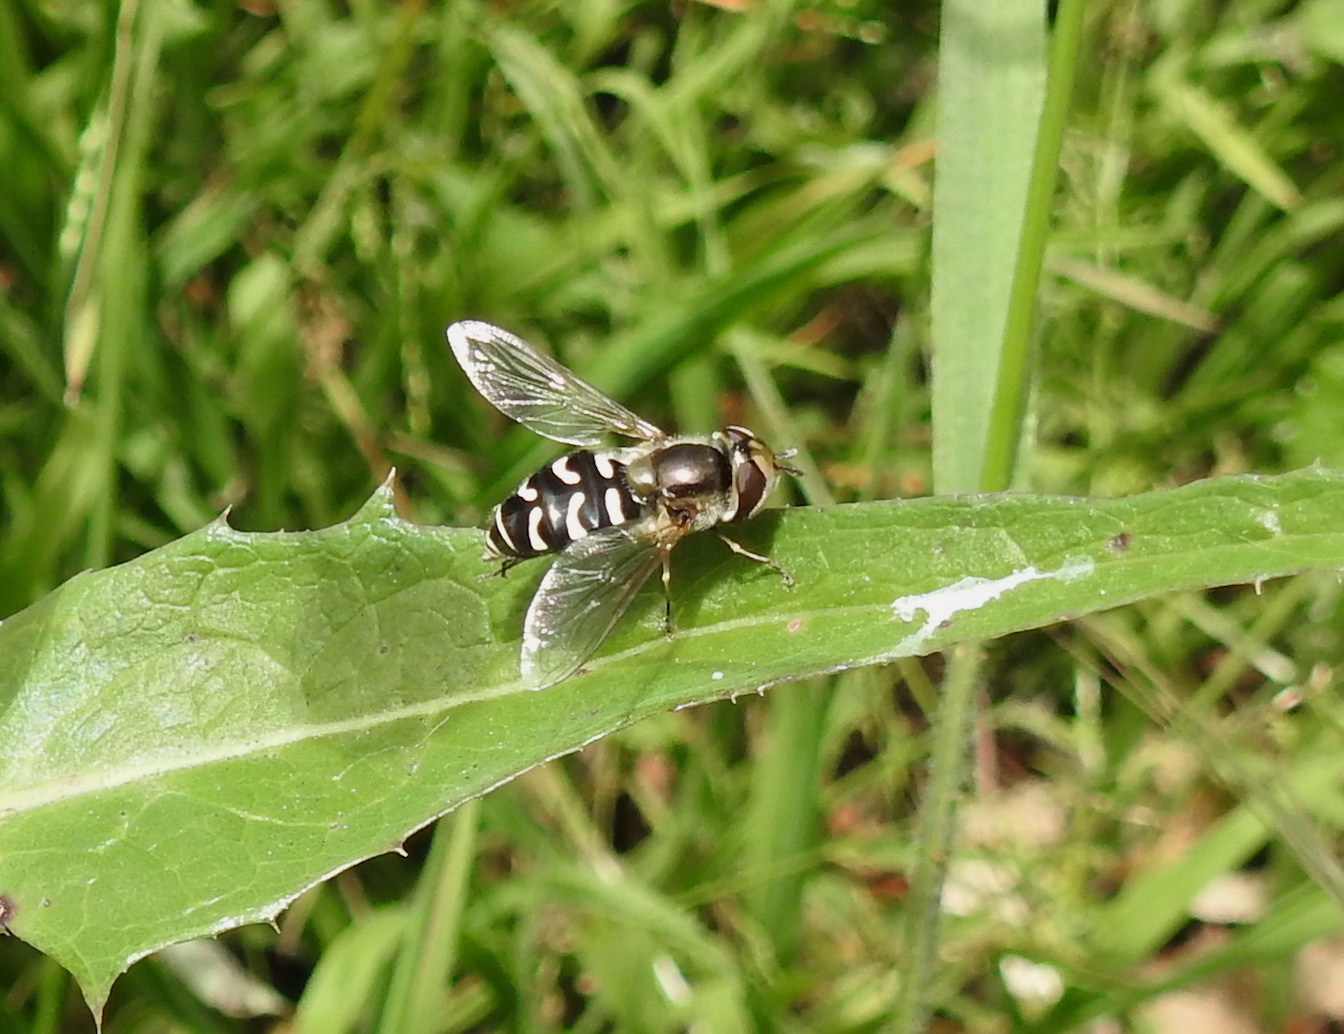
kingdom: Animalia
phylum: Arthropoda
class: Insecta
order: Diptera
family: Syrphidae
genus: Scaeva
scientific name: Scaeva affinis
